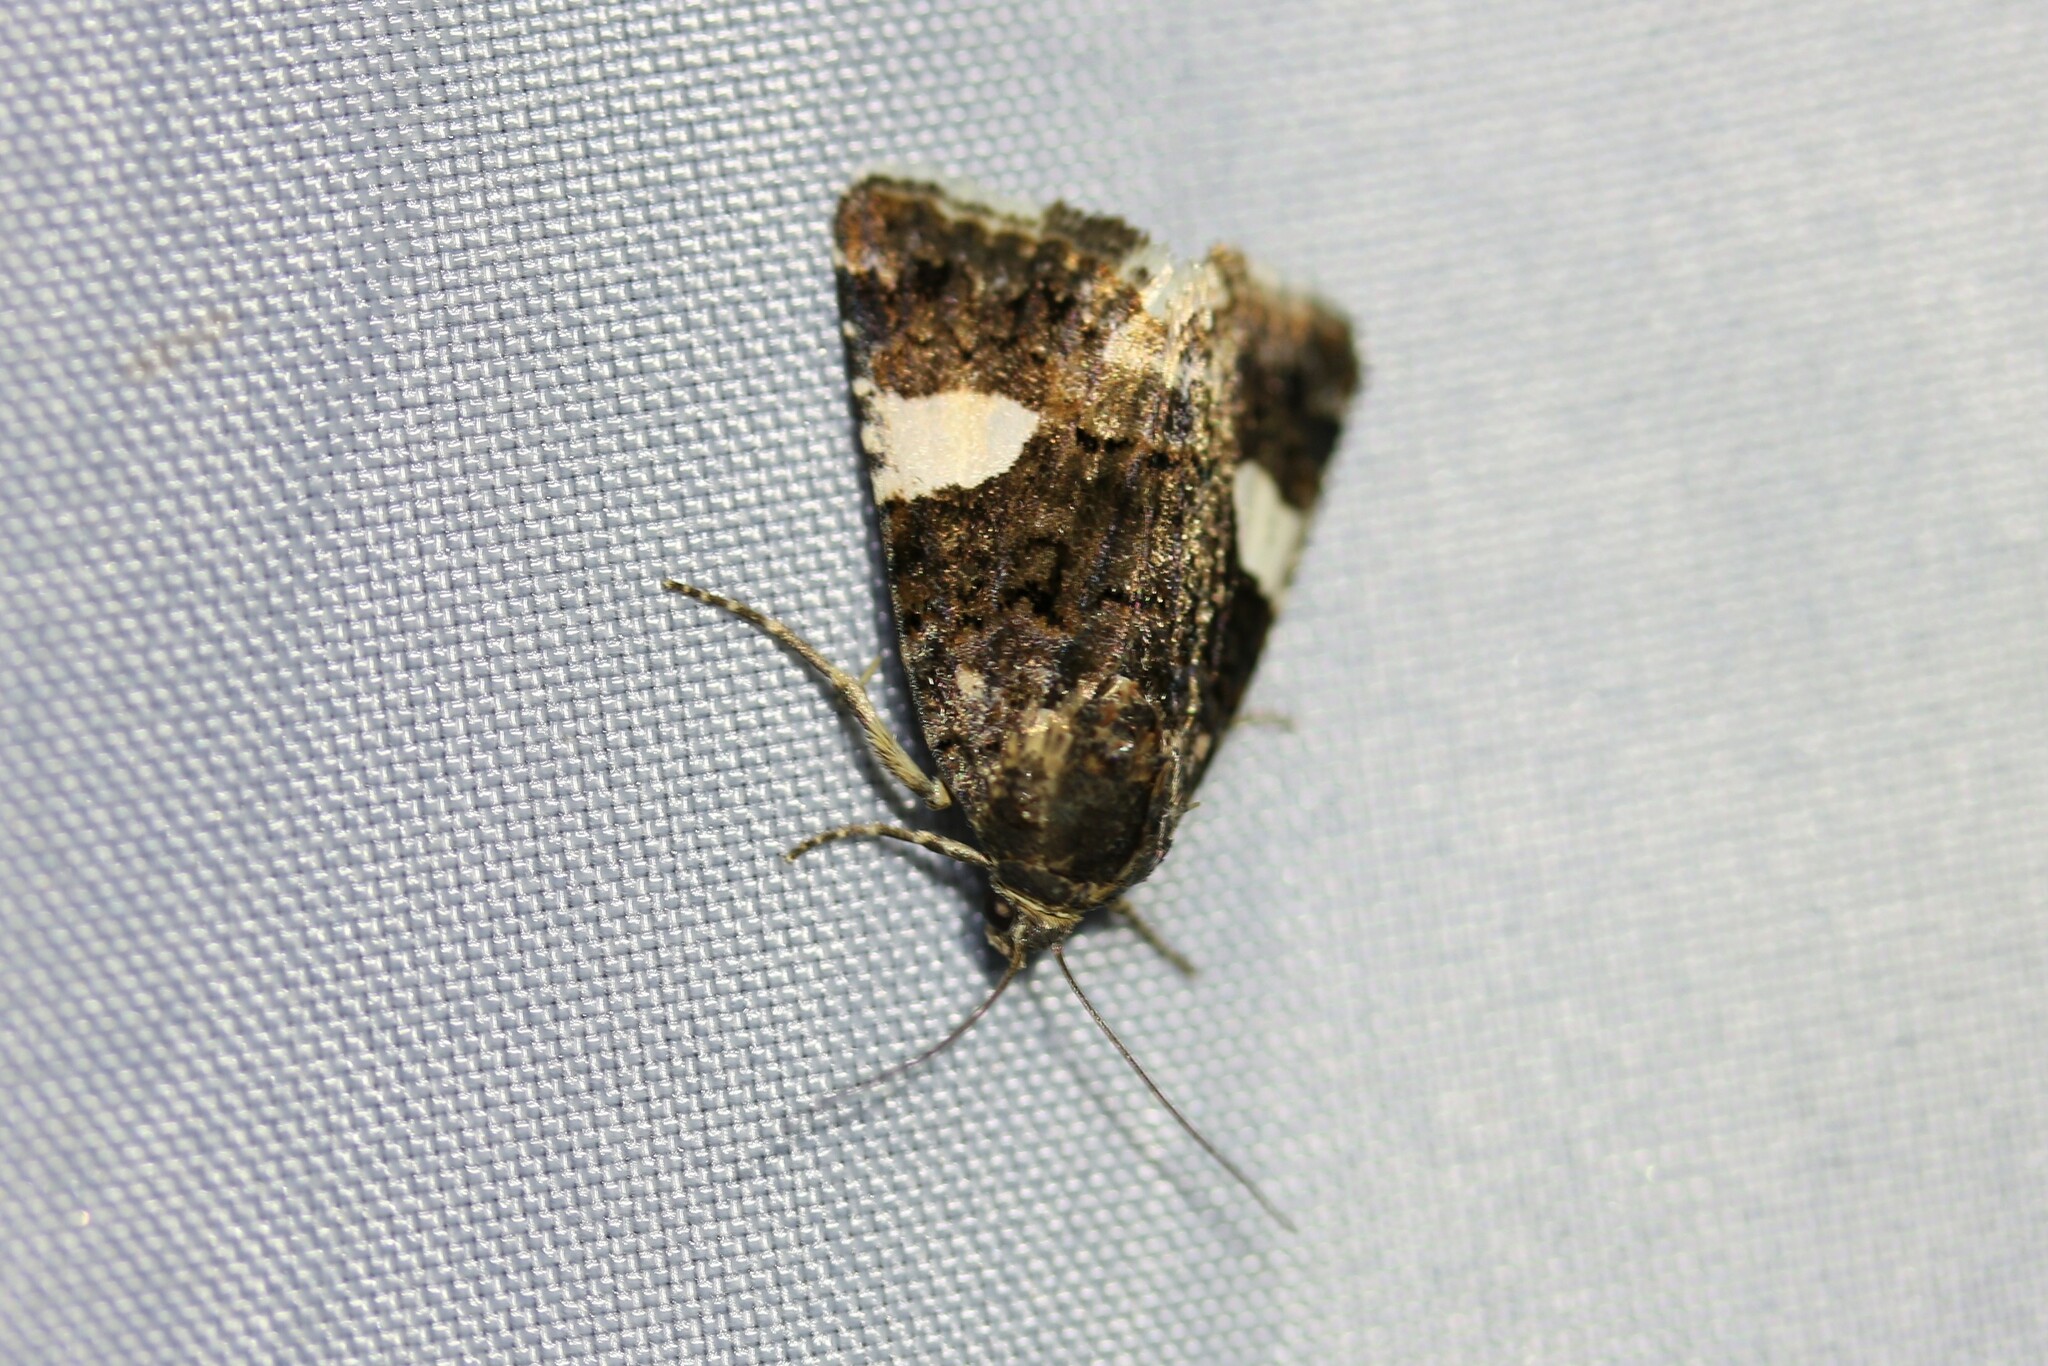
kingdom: Animalia
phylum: Arthropoda
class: Insecta
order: Lepidoptera
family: Erebidae
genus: Tyta
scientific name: Tyta luctuosa
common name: Four-spotted
